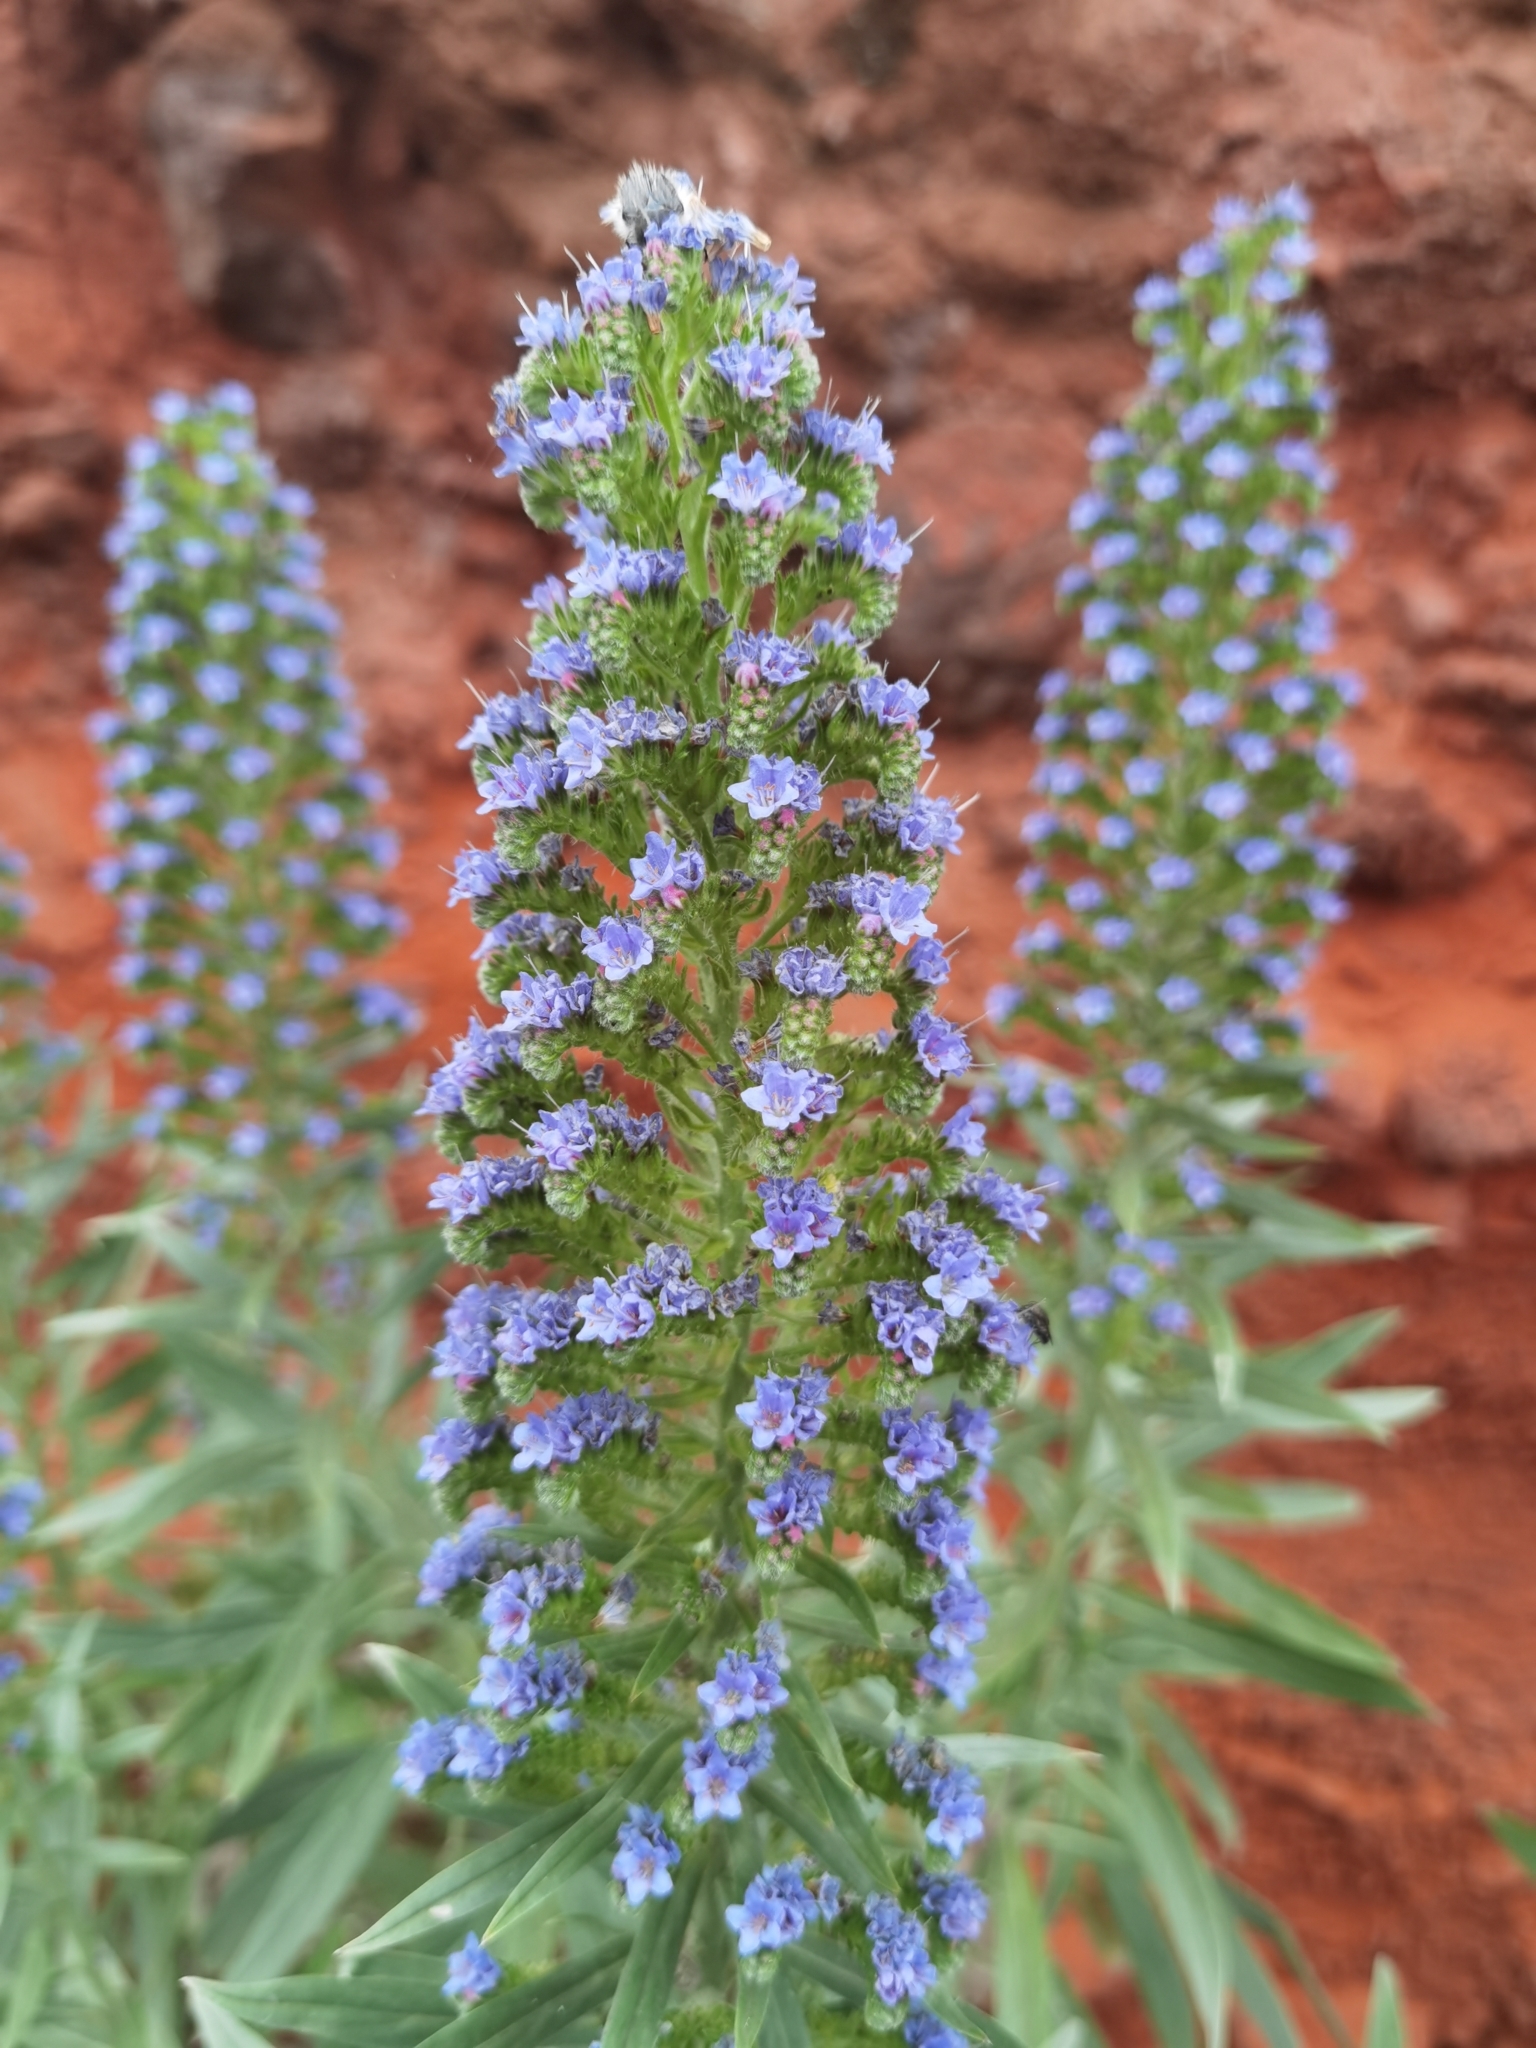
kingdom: Plantae
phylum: Tracheophyta
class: Magnoliopsida
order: Boraginales
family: Boraginaceae
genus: Echium
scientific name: Echium webbii
